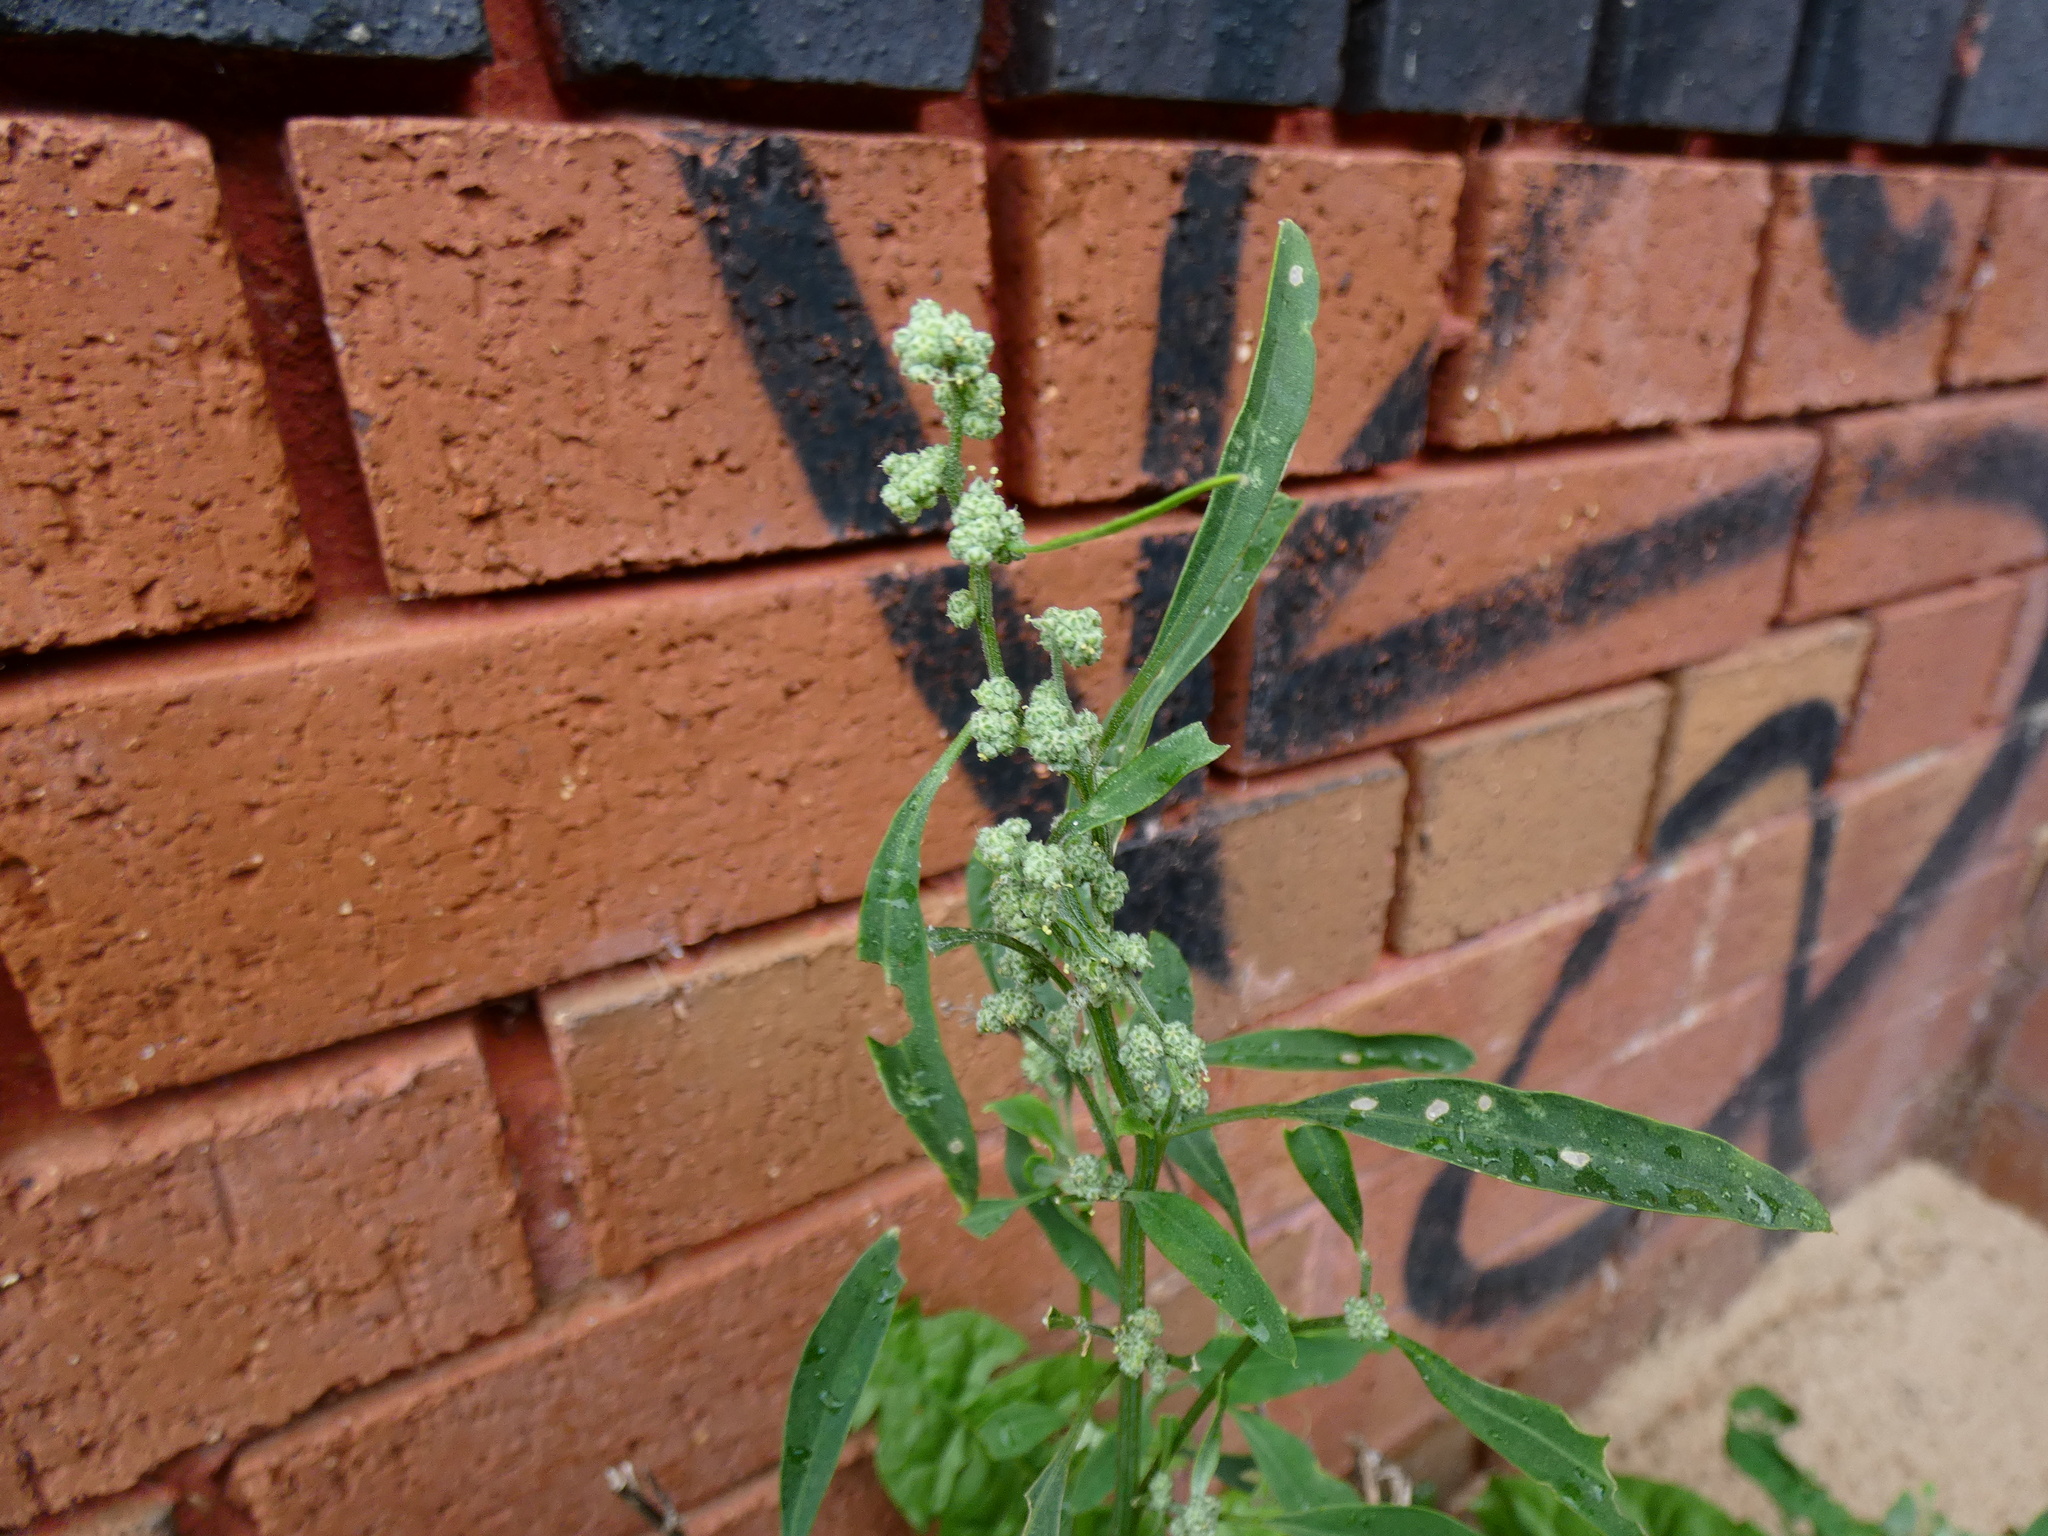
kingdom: Plantae
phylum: Tracheophyta
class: Magnoliopsida
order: Caryophyllales
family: Amaranthaceae
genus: Chenopodium
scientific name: Chenopodium album
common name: Fat-hen
